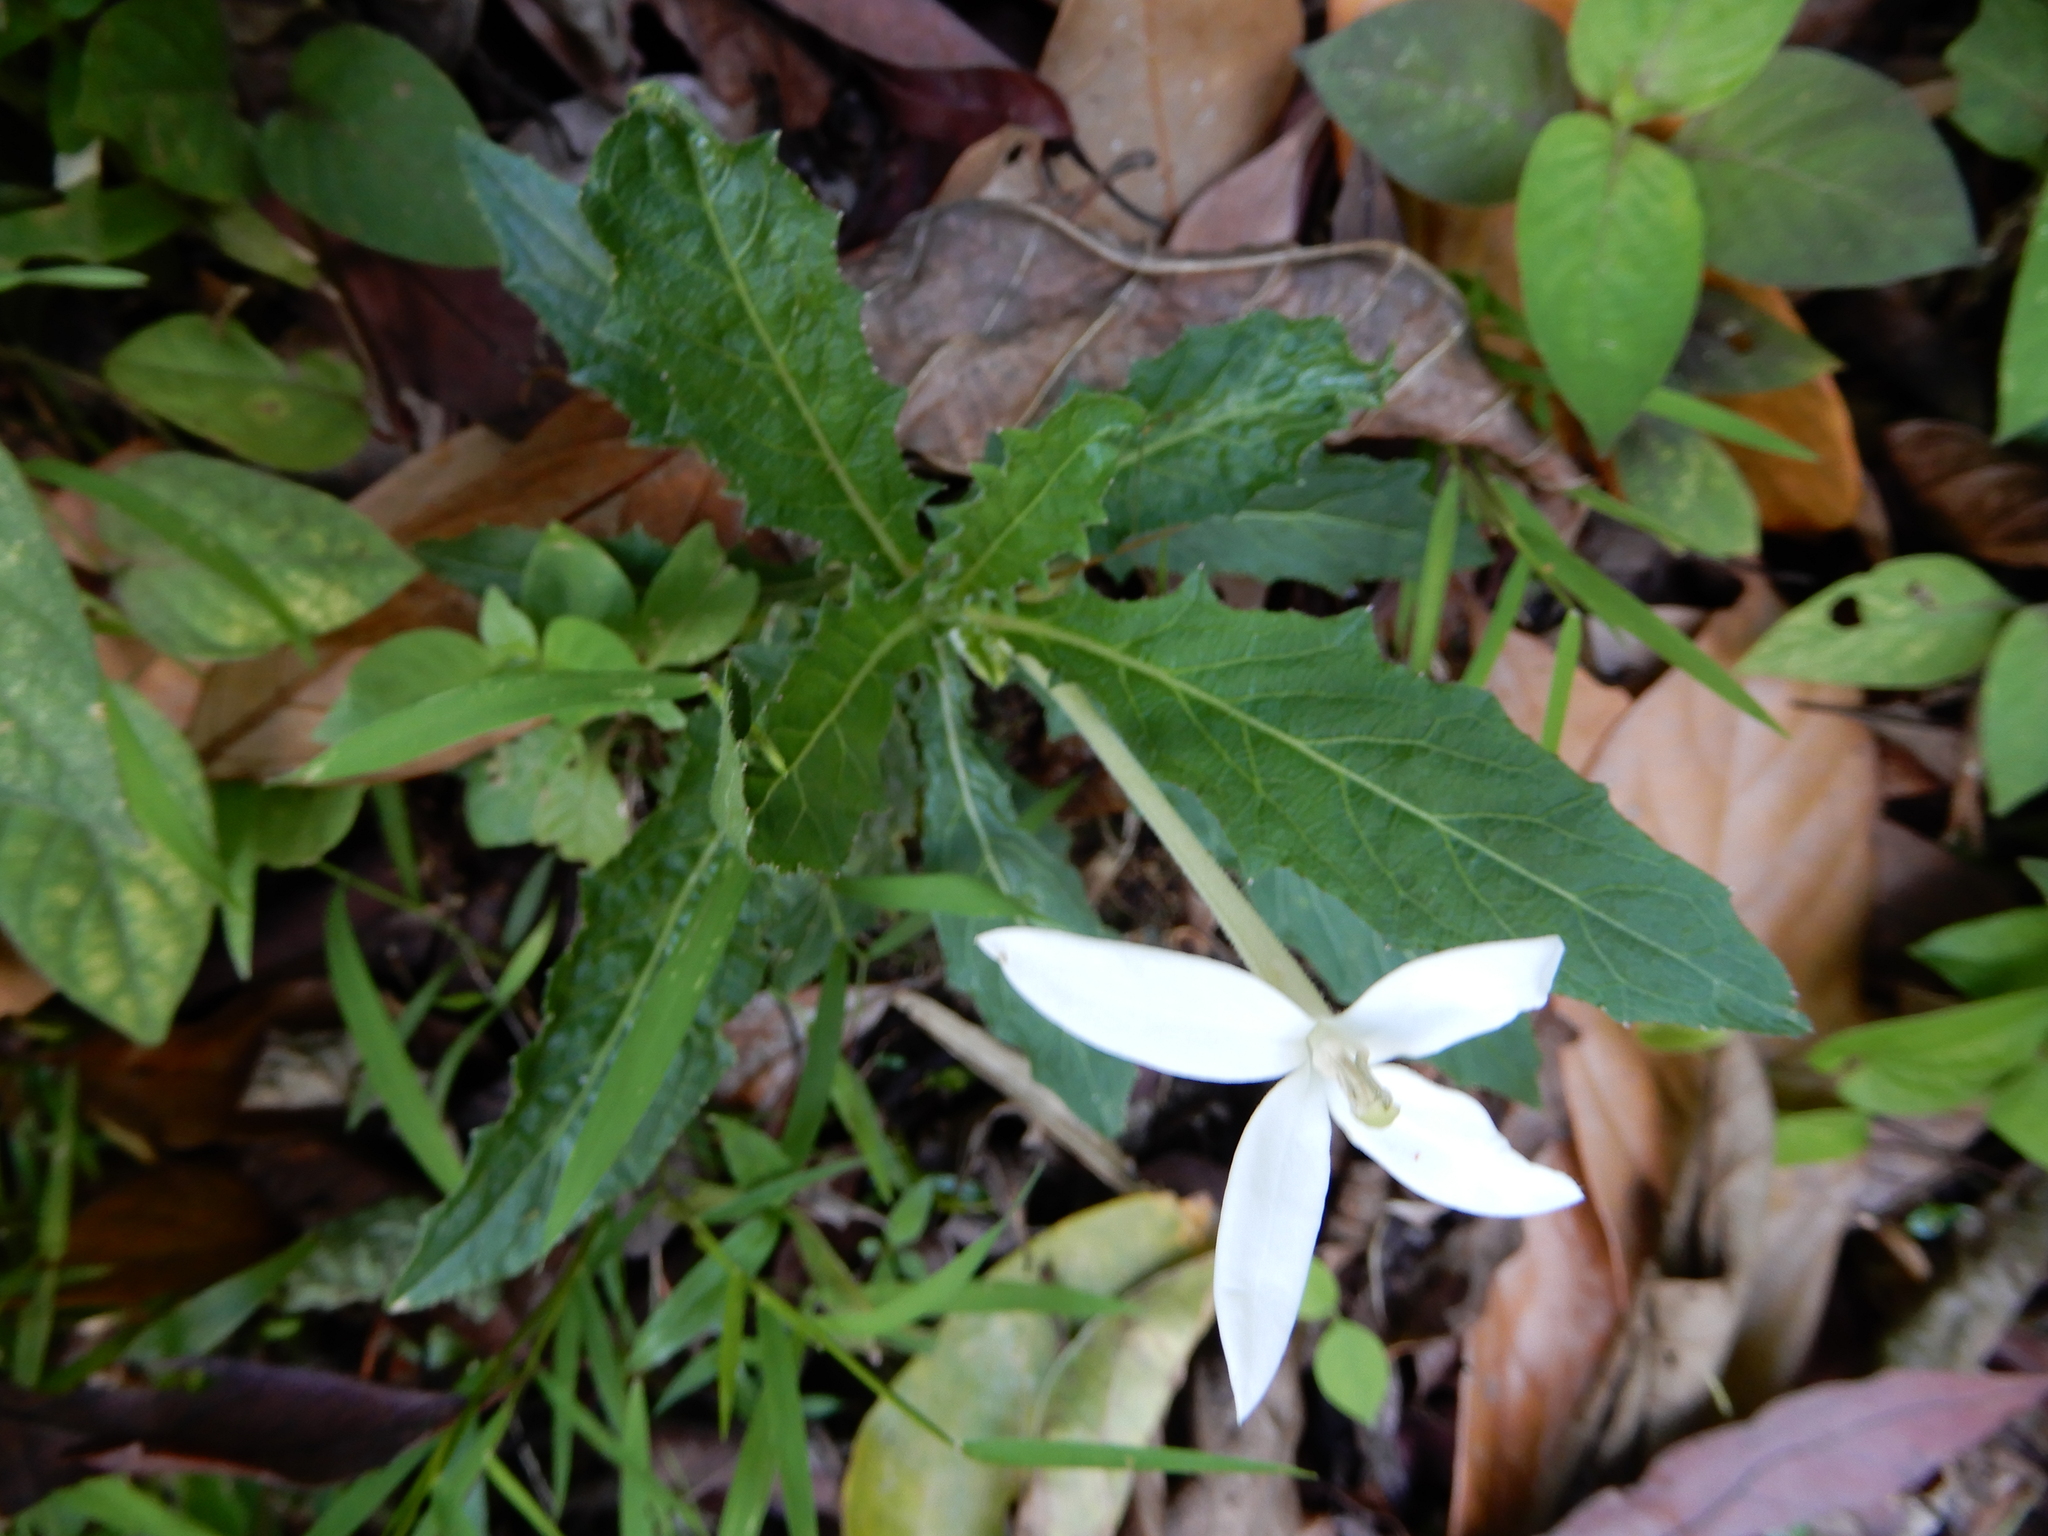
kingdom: Plantae
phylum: Tracheophyta
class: Magnoliopsida
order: Asterales
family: Campanulaceae
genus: Hippobroma
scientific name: Hippobroma longiflora
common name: Madamfate
